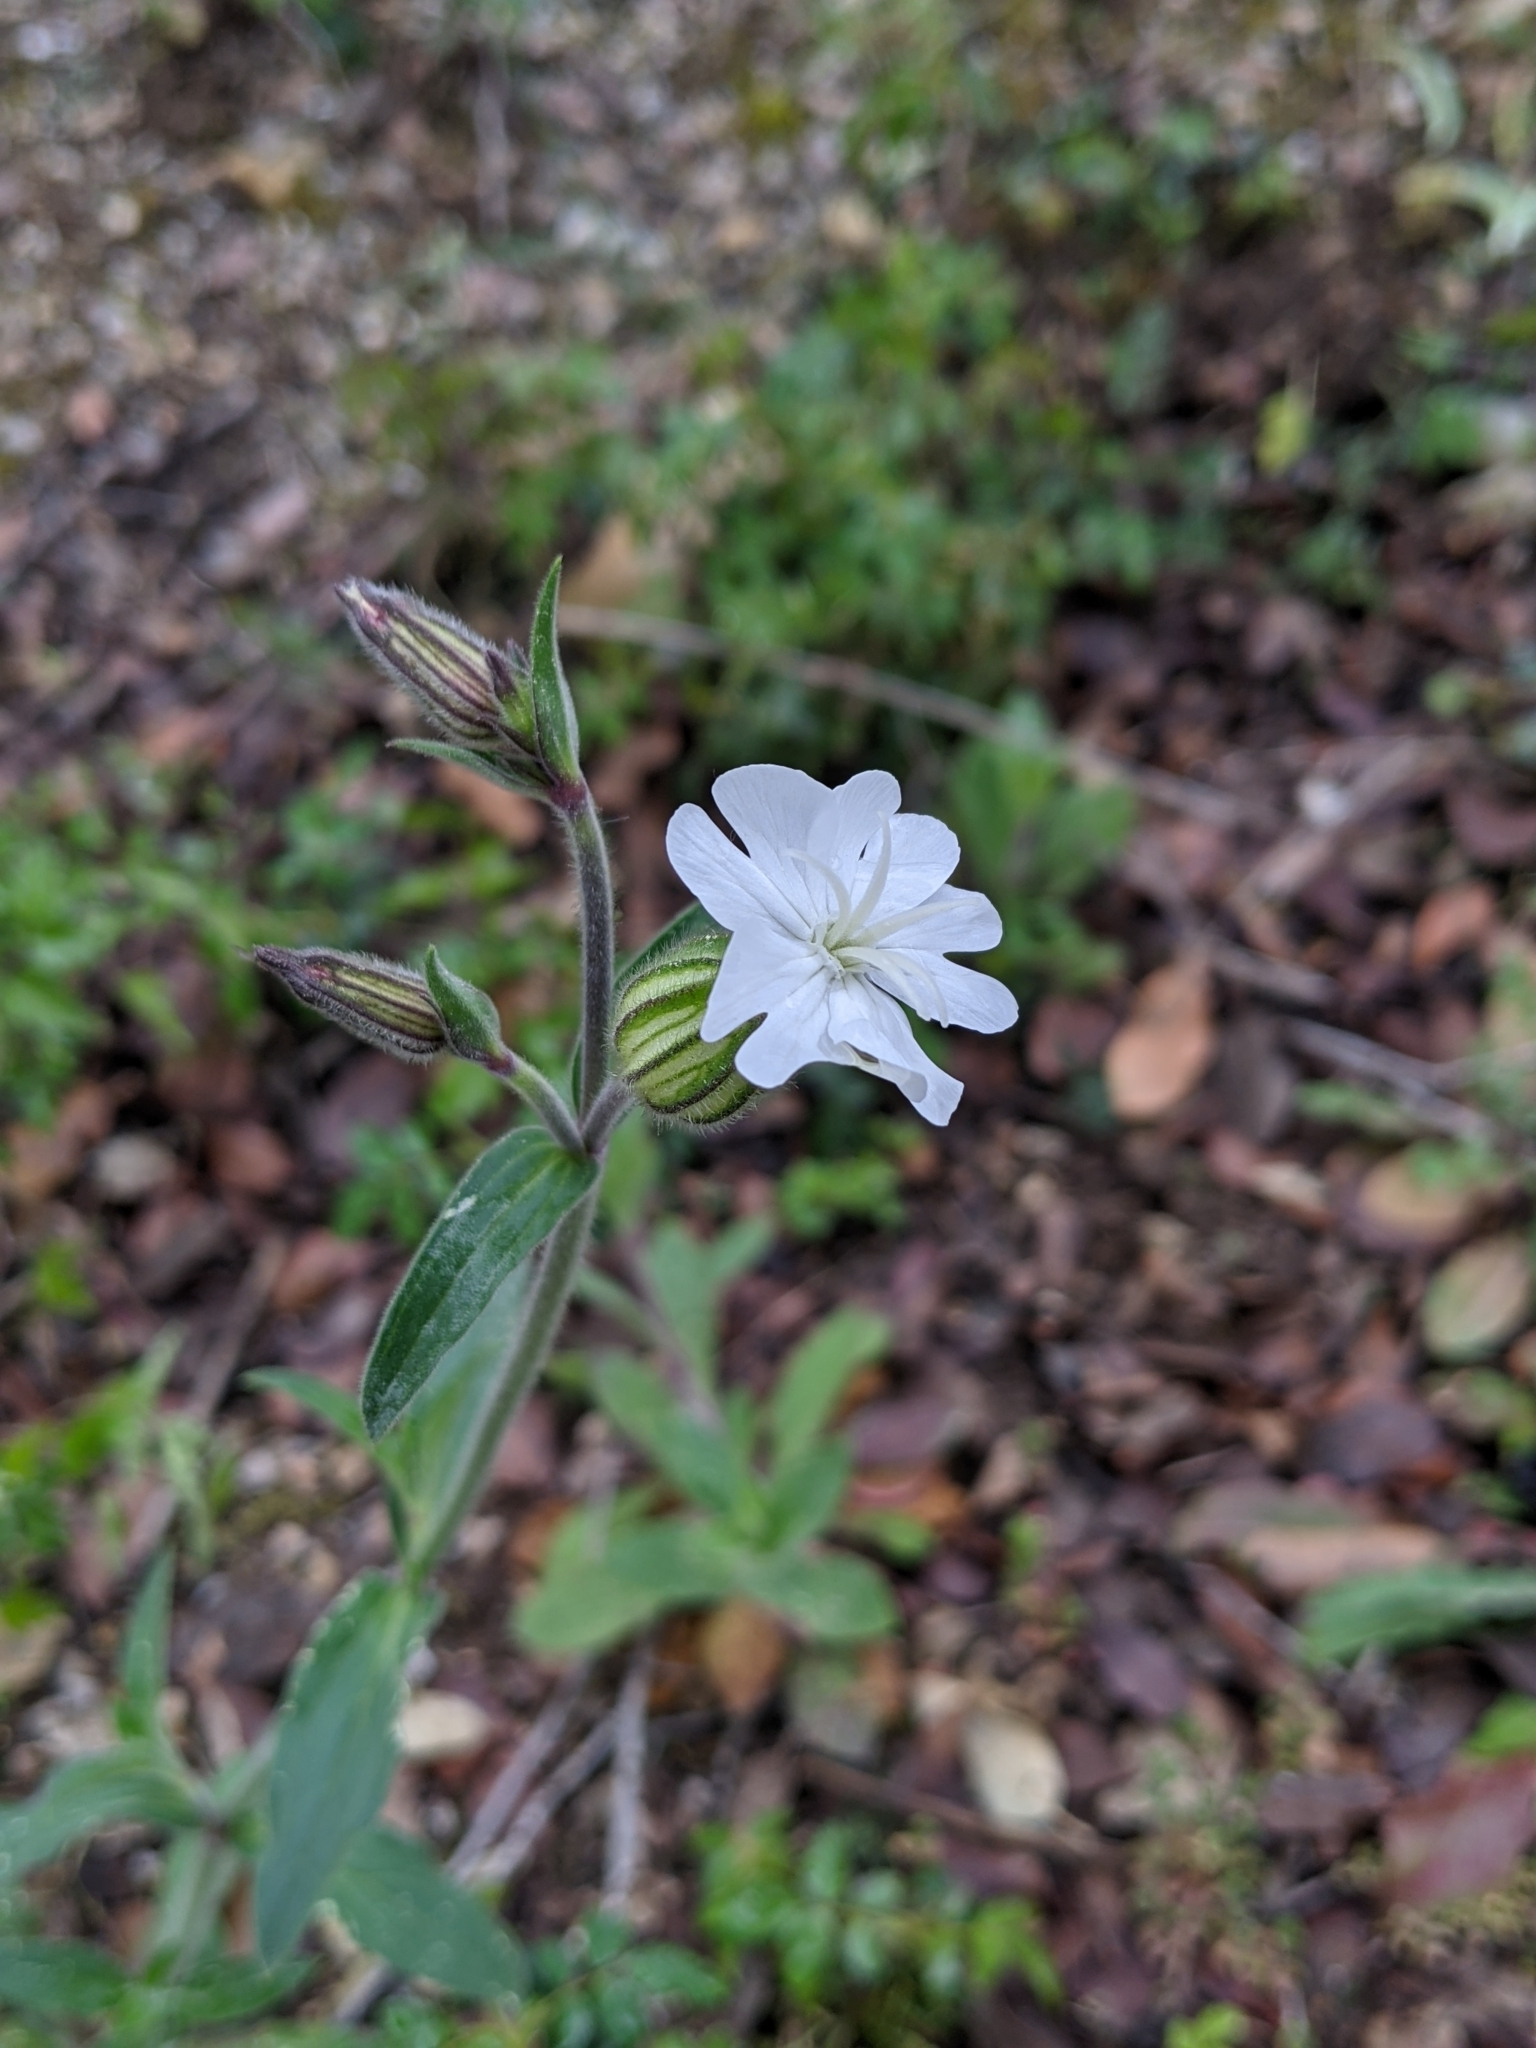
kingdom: Plantae
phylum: Tracheophyta
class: Magnoliopsida
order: Caryophyllales
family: Caryophyllaceae
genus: Silene
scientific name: Silene latifolia
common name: White campion
